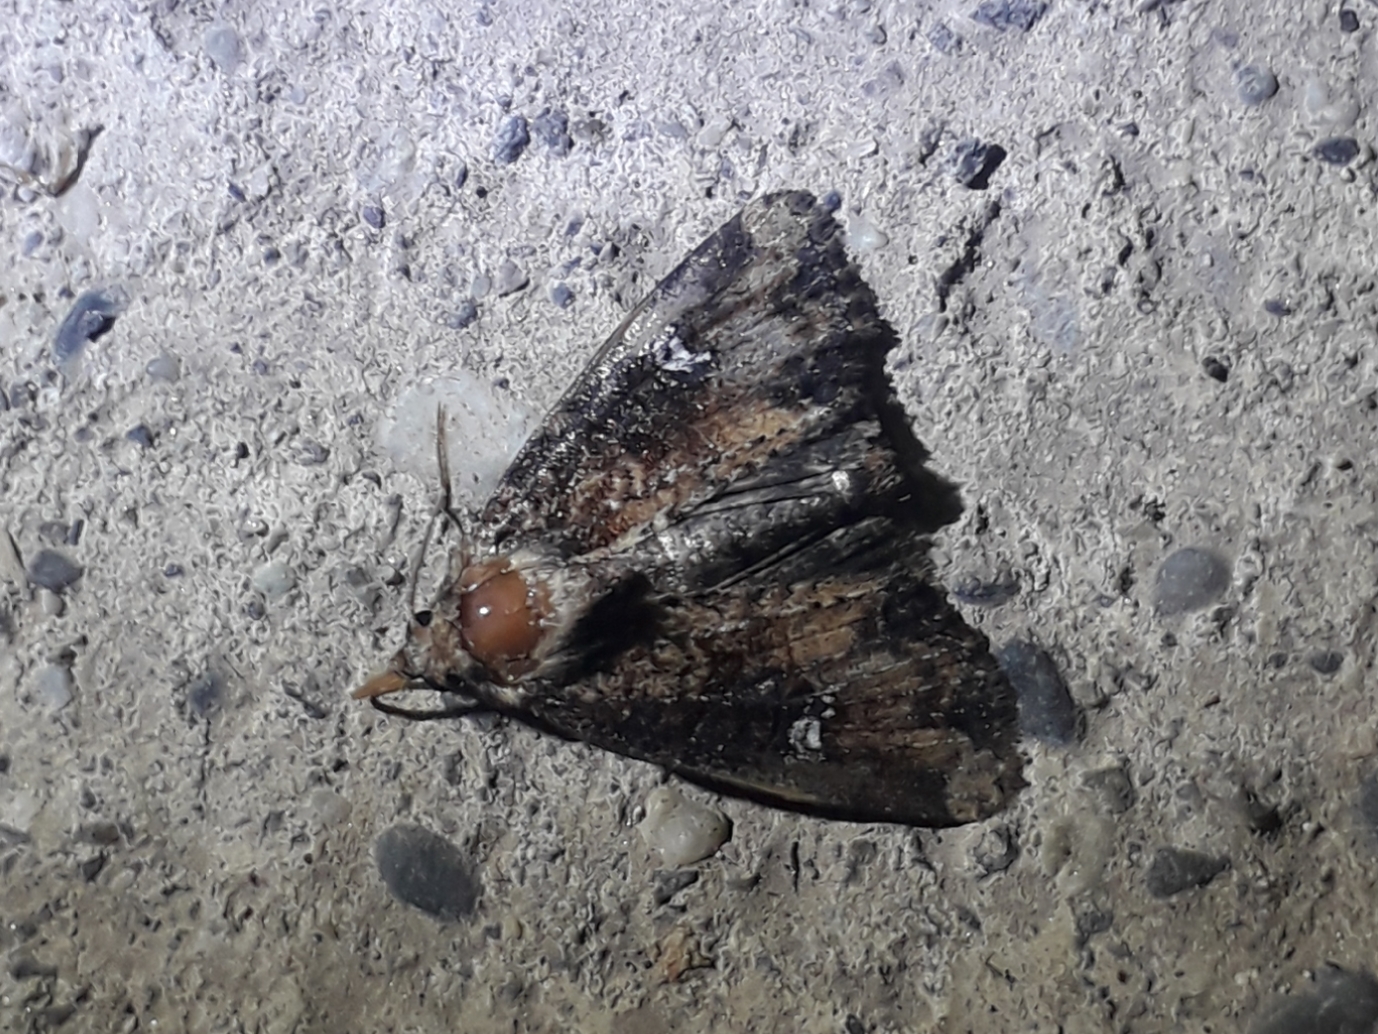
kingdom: Animalia
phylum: Arthropoda
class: Insecta
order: Lepidoptera
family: Noctuidae
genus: Mesapamea
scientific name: Mesapamea
